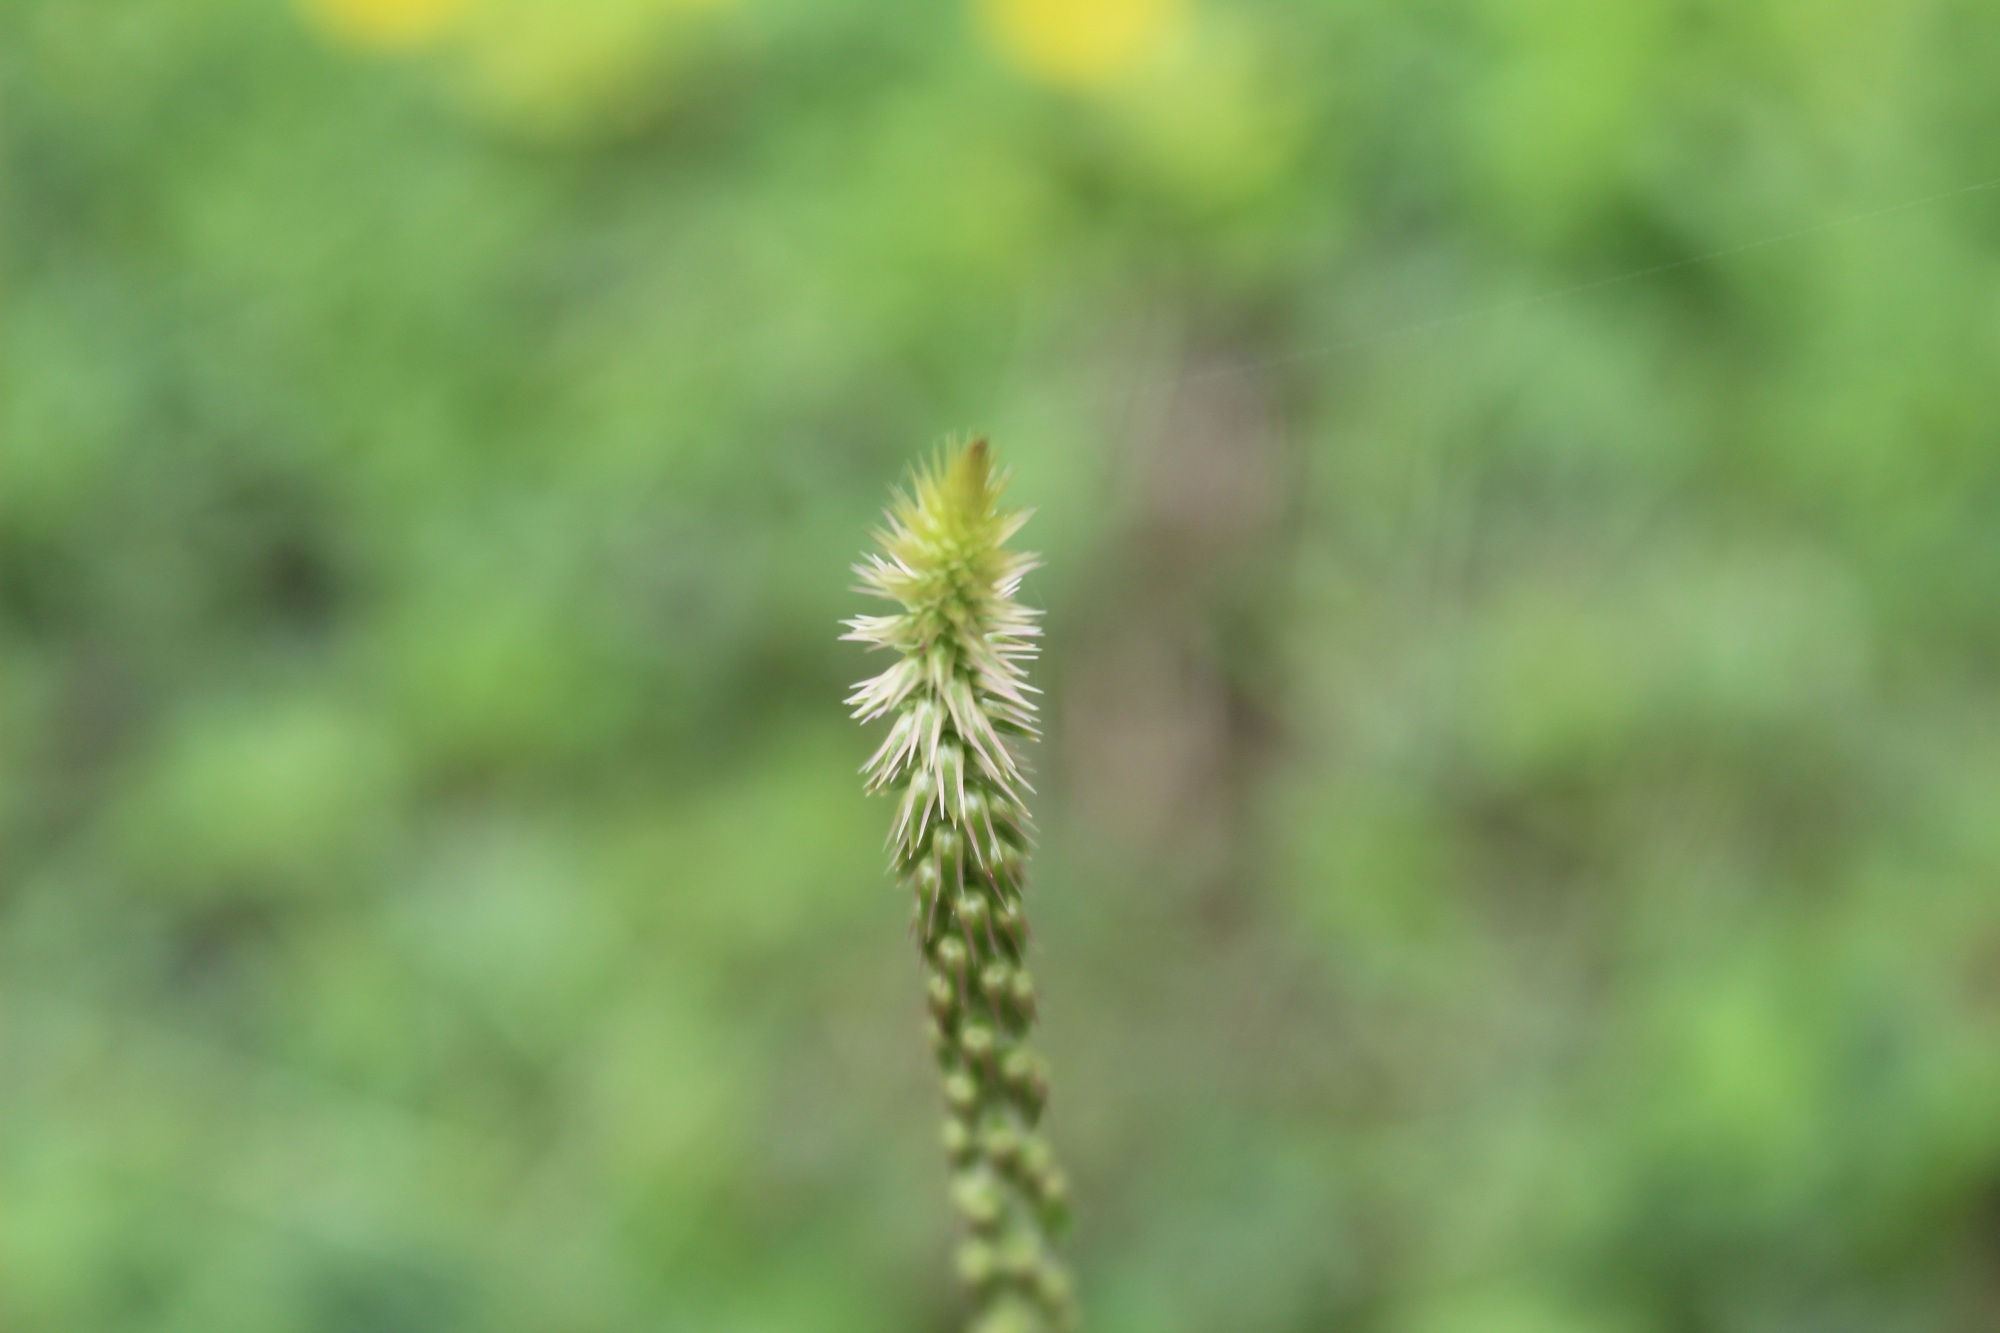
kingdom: Plantae
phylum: Tracheophyta
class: Magnoliopsida
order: Caryophyllales
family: Amaranthaceae
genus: Achyranthes
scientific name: Achyranthes aspera
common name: Devil's horsewhip
